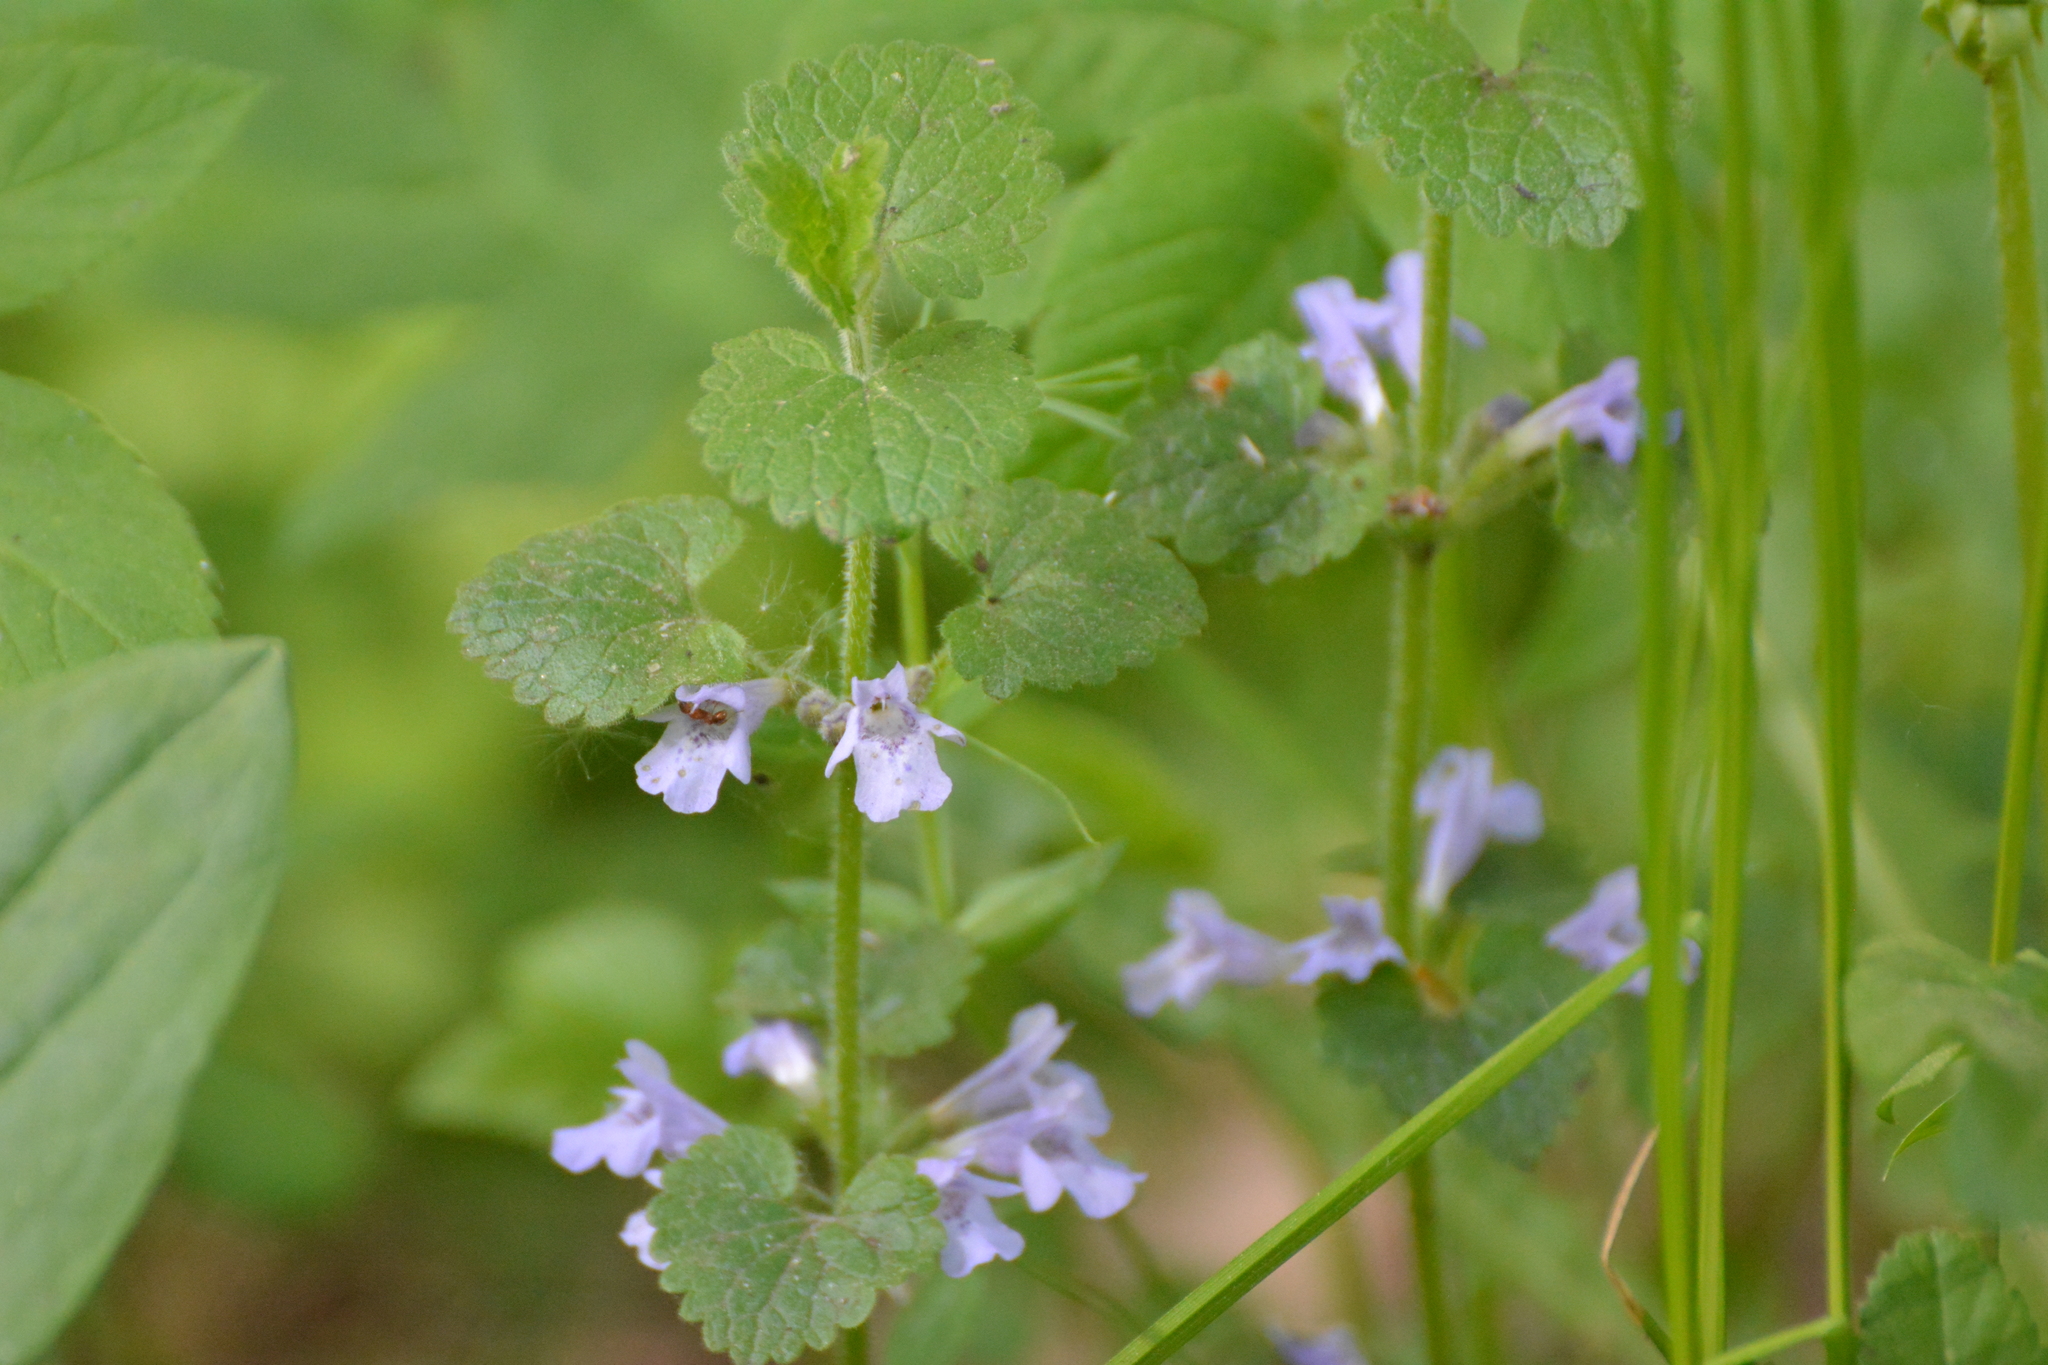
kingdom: Plantae
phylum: Tracheophyta
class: Magnoliopsida
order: Lamiales
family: Lamiaceae
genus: Glechoma
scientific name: Glechoma hederacea
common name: Ground ivy
